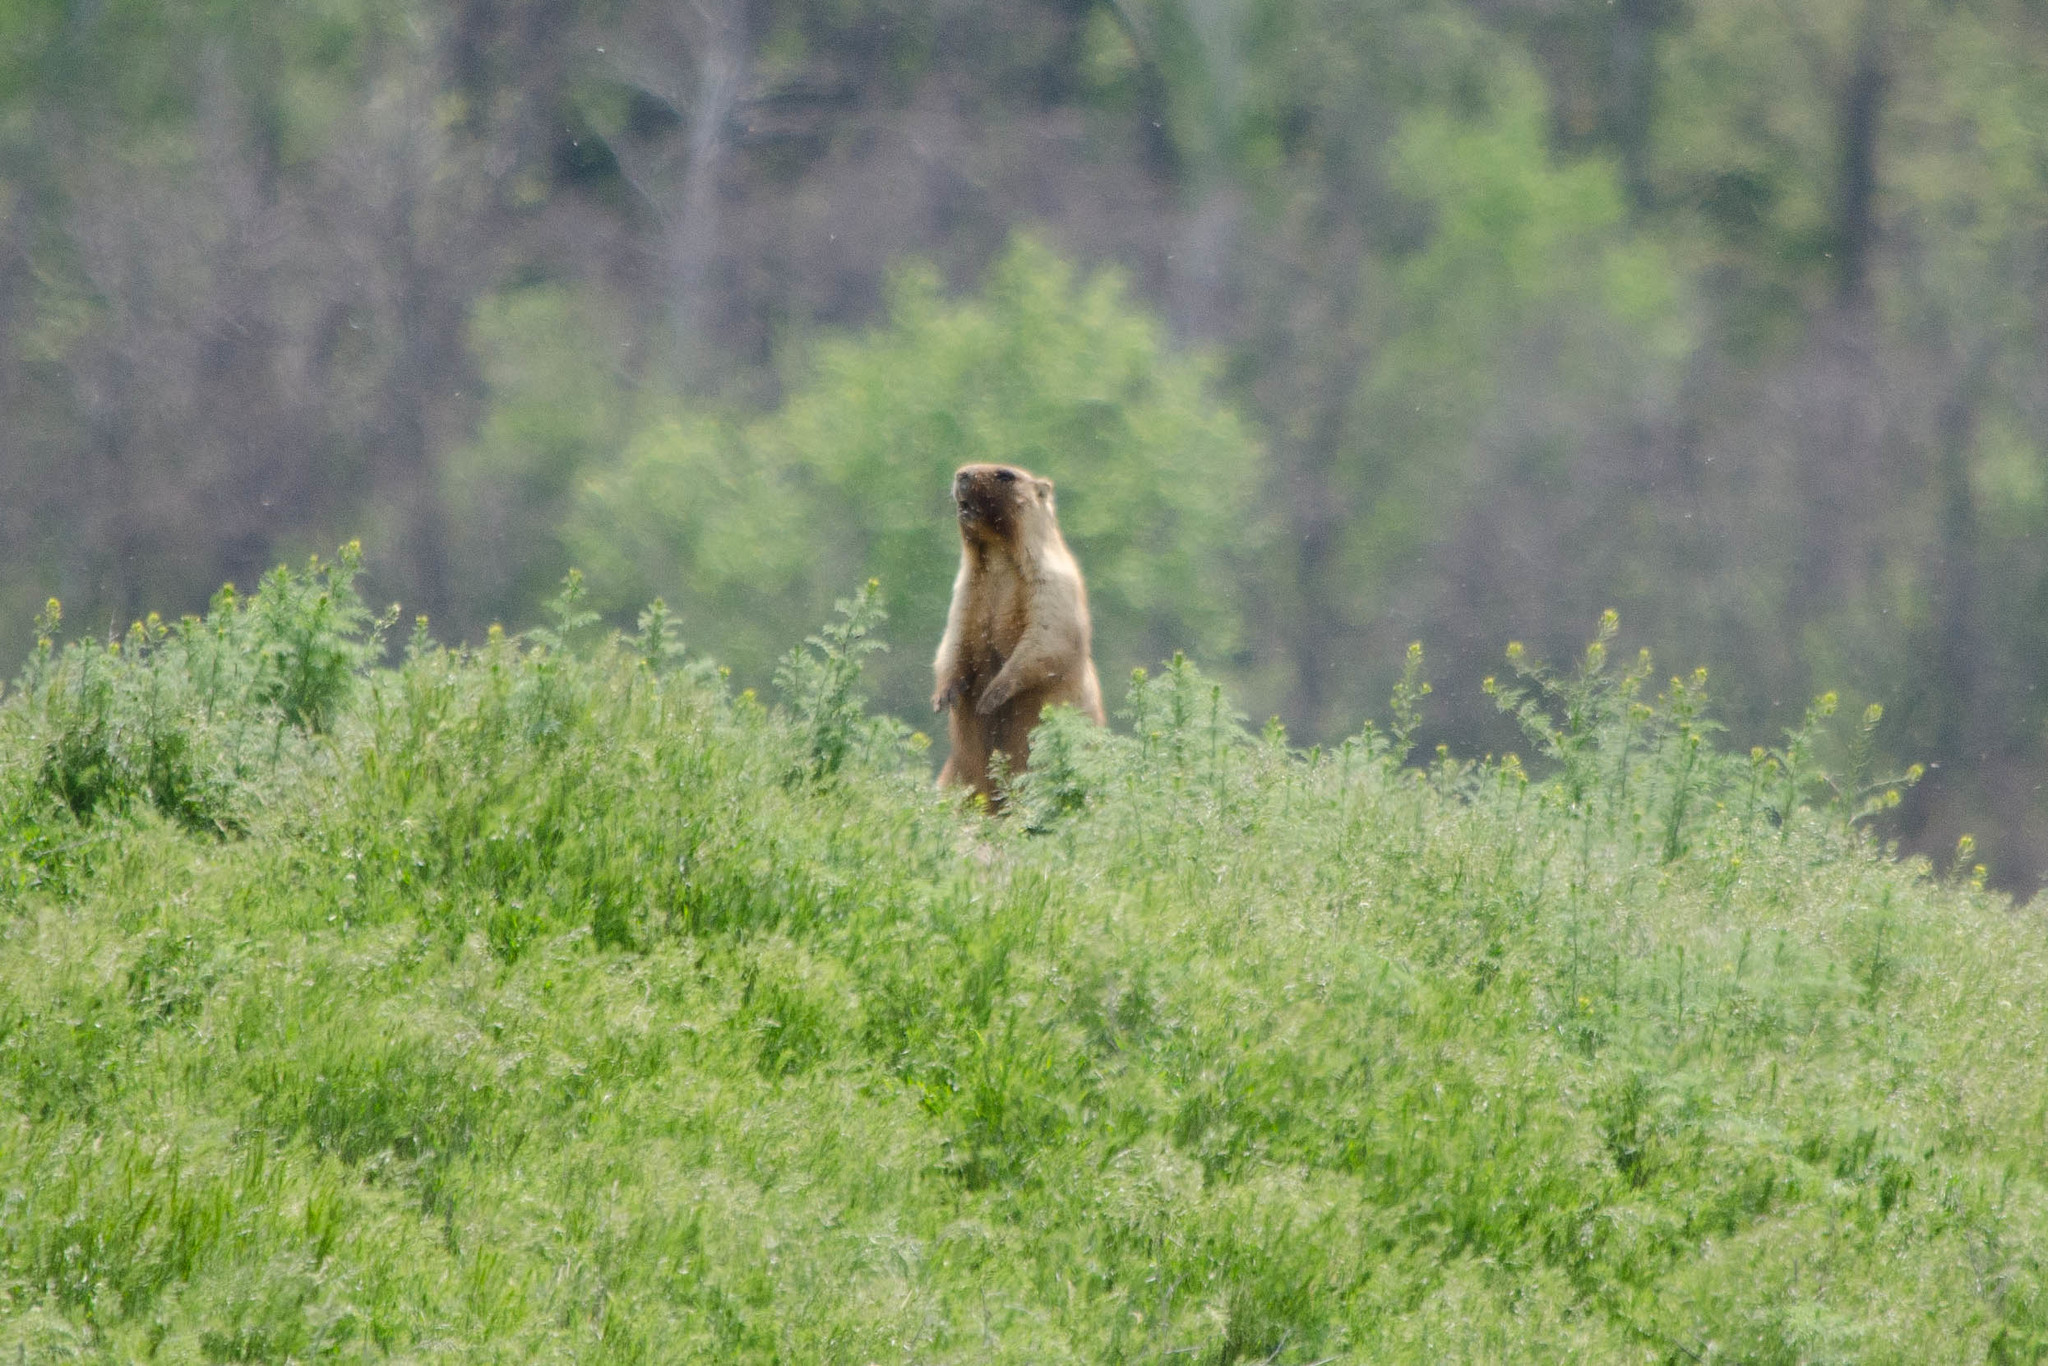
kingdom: Animalia
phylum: Chordata
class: Mammalia
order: Rodentia
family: Sciuridae
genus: Marmota
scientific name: Marmota bobak
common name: Bobak marmot
